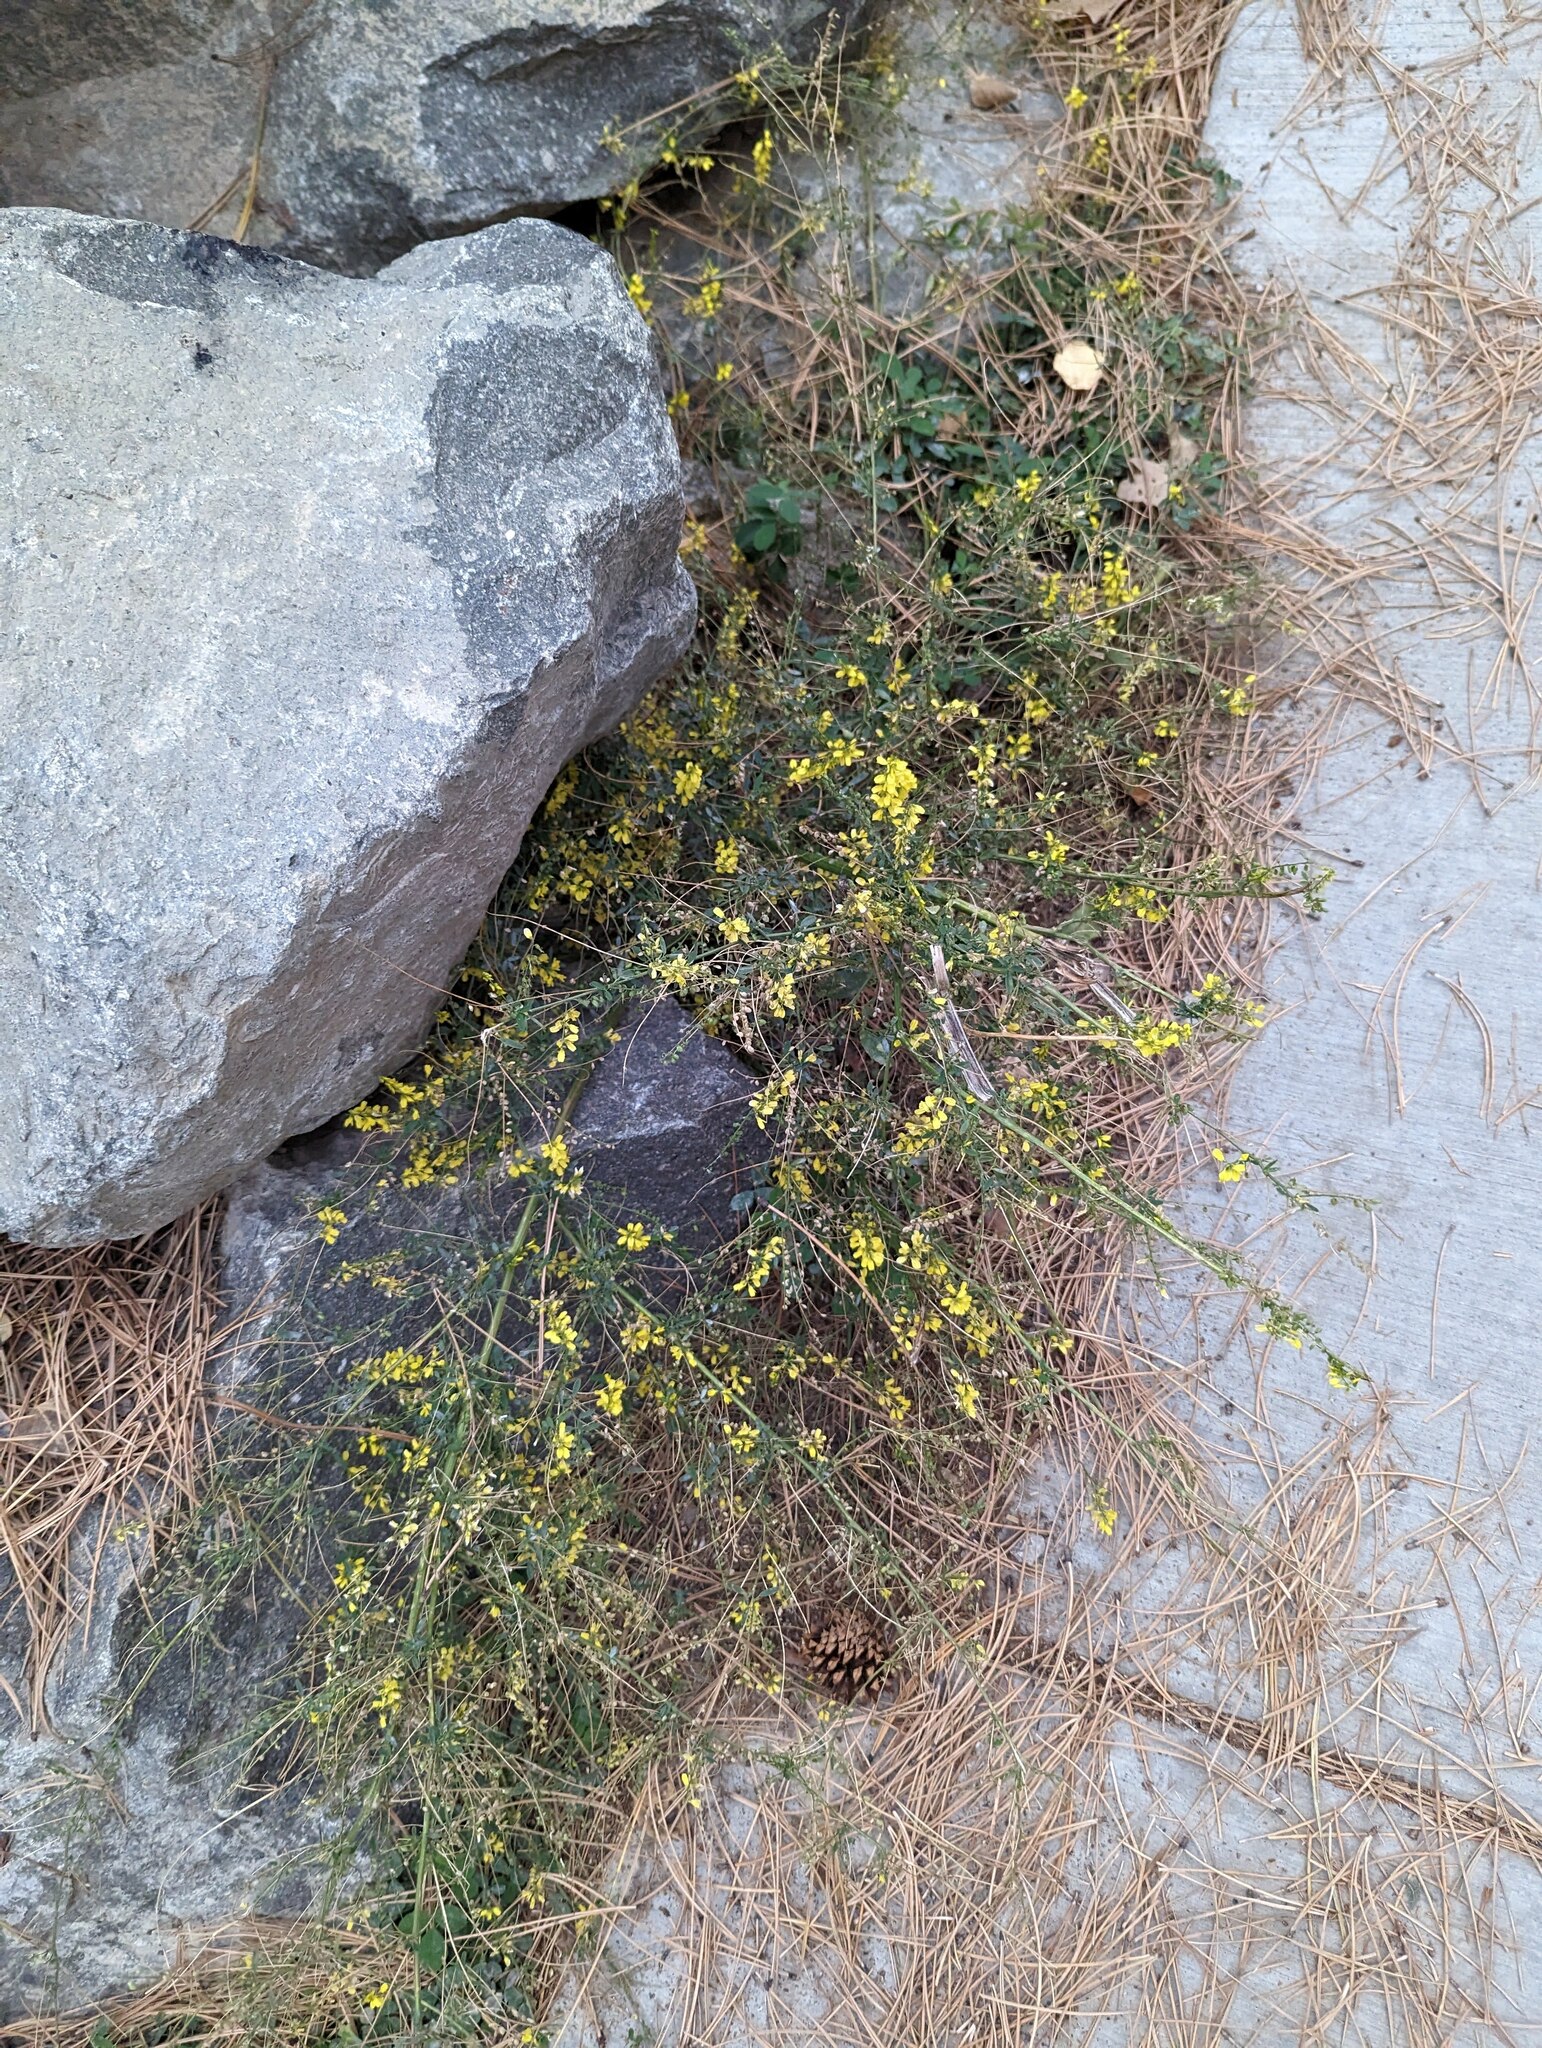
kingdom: Plantae
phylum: Tracheophyta
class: Magnoliopsida
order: Fabales
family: Fabaceae
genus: Melilotus
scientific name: Melilotus officinalis
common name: Sweetclover
